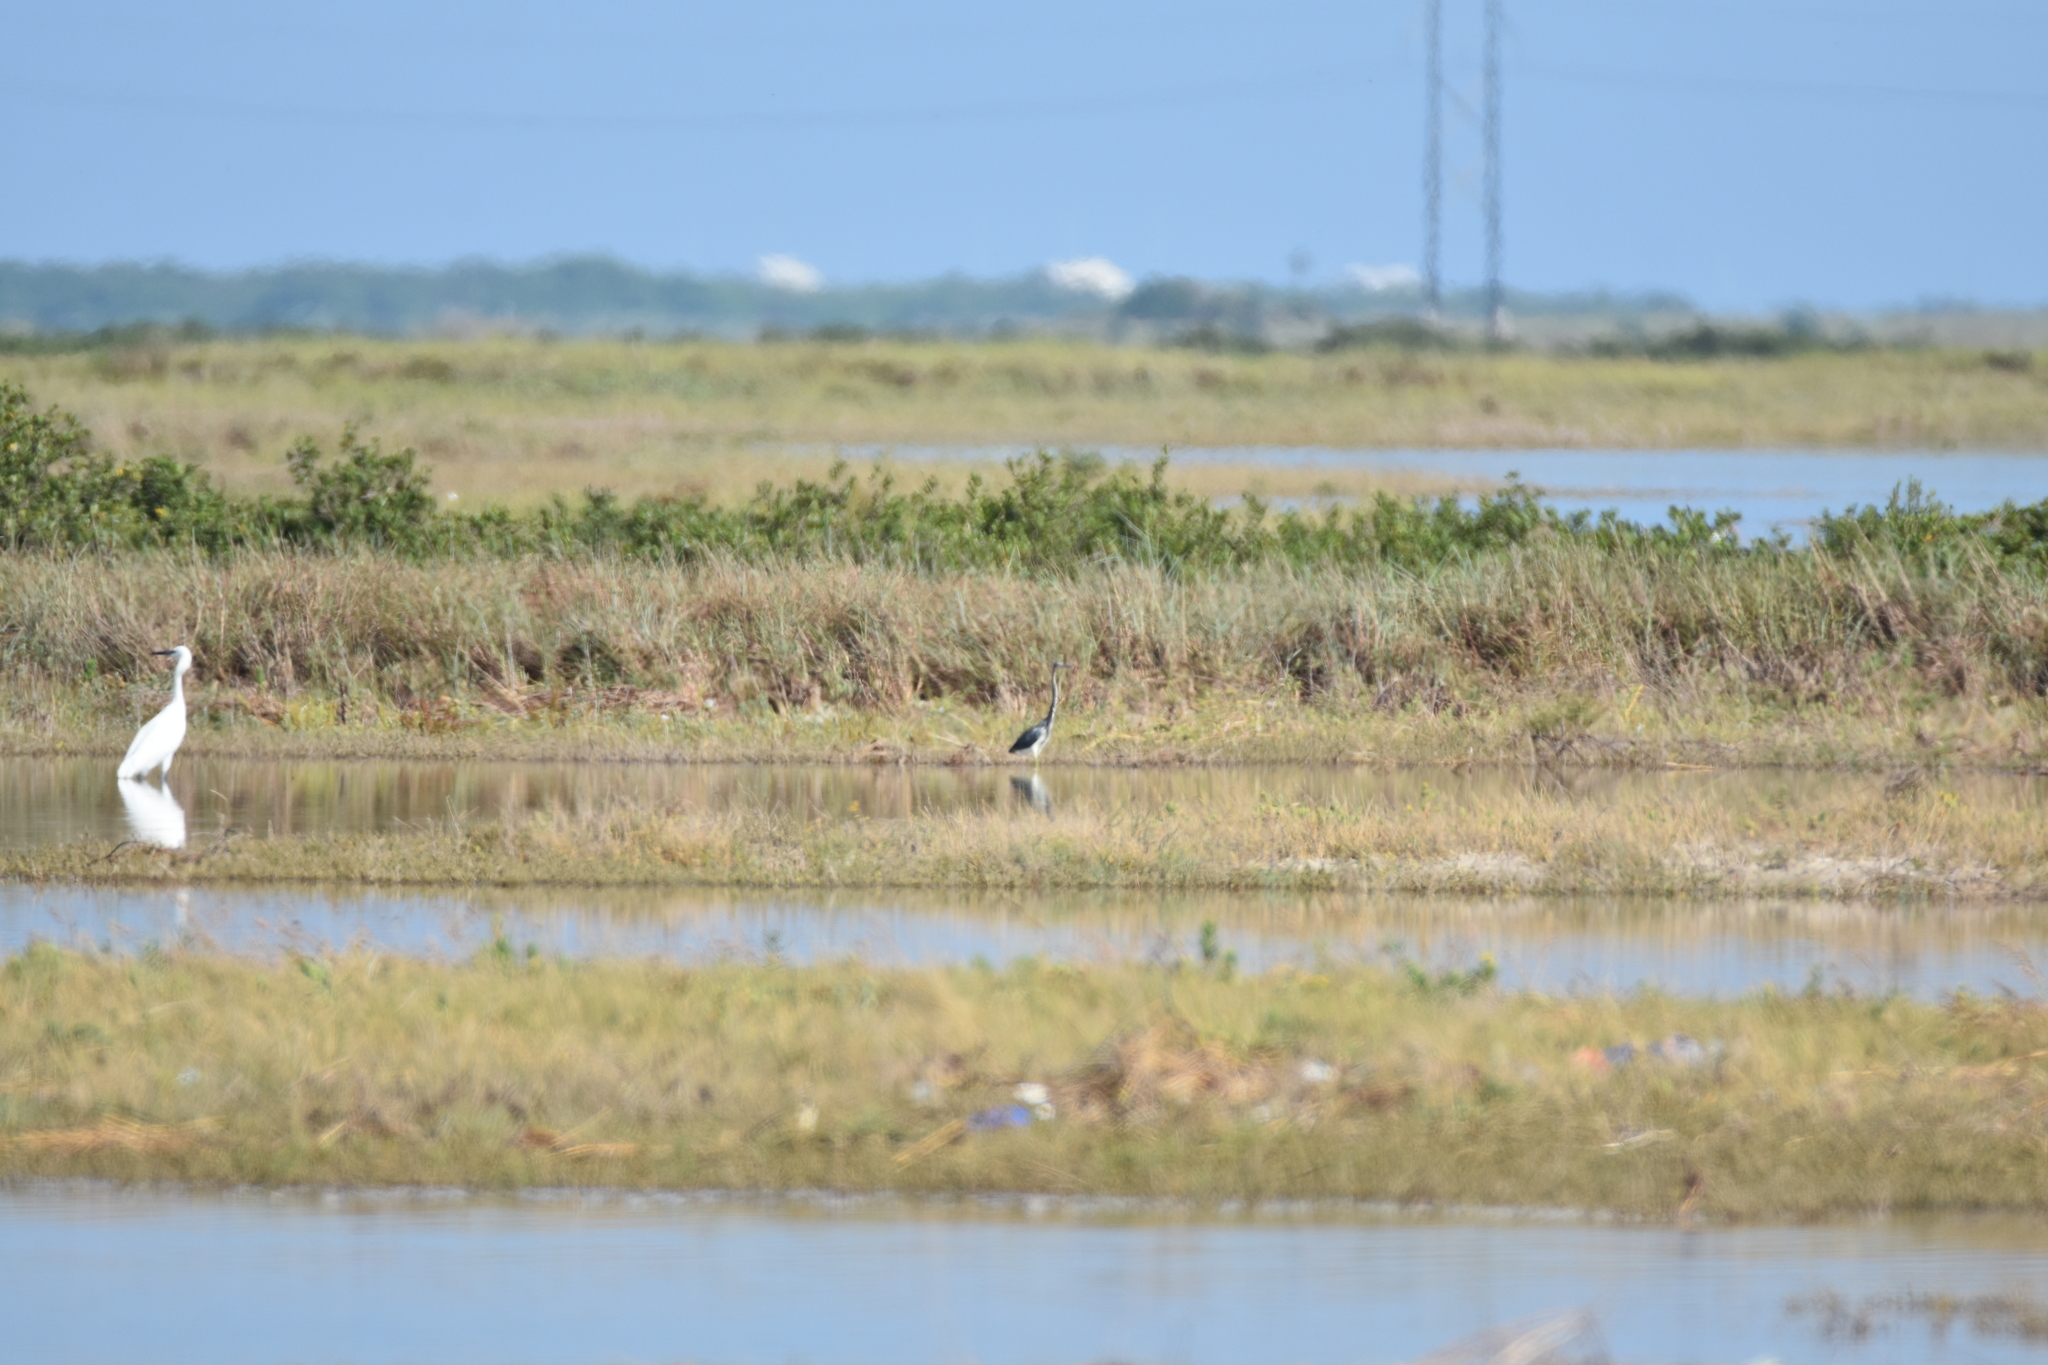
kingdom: Animalia
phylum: Chordata
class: Aves
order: Pelecaniformes
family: Ardeidae
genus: Egretta
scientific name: Egretta tricolor
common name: Tricolored heron
